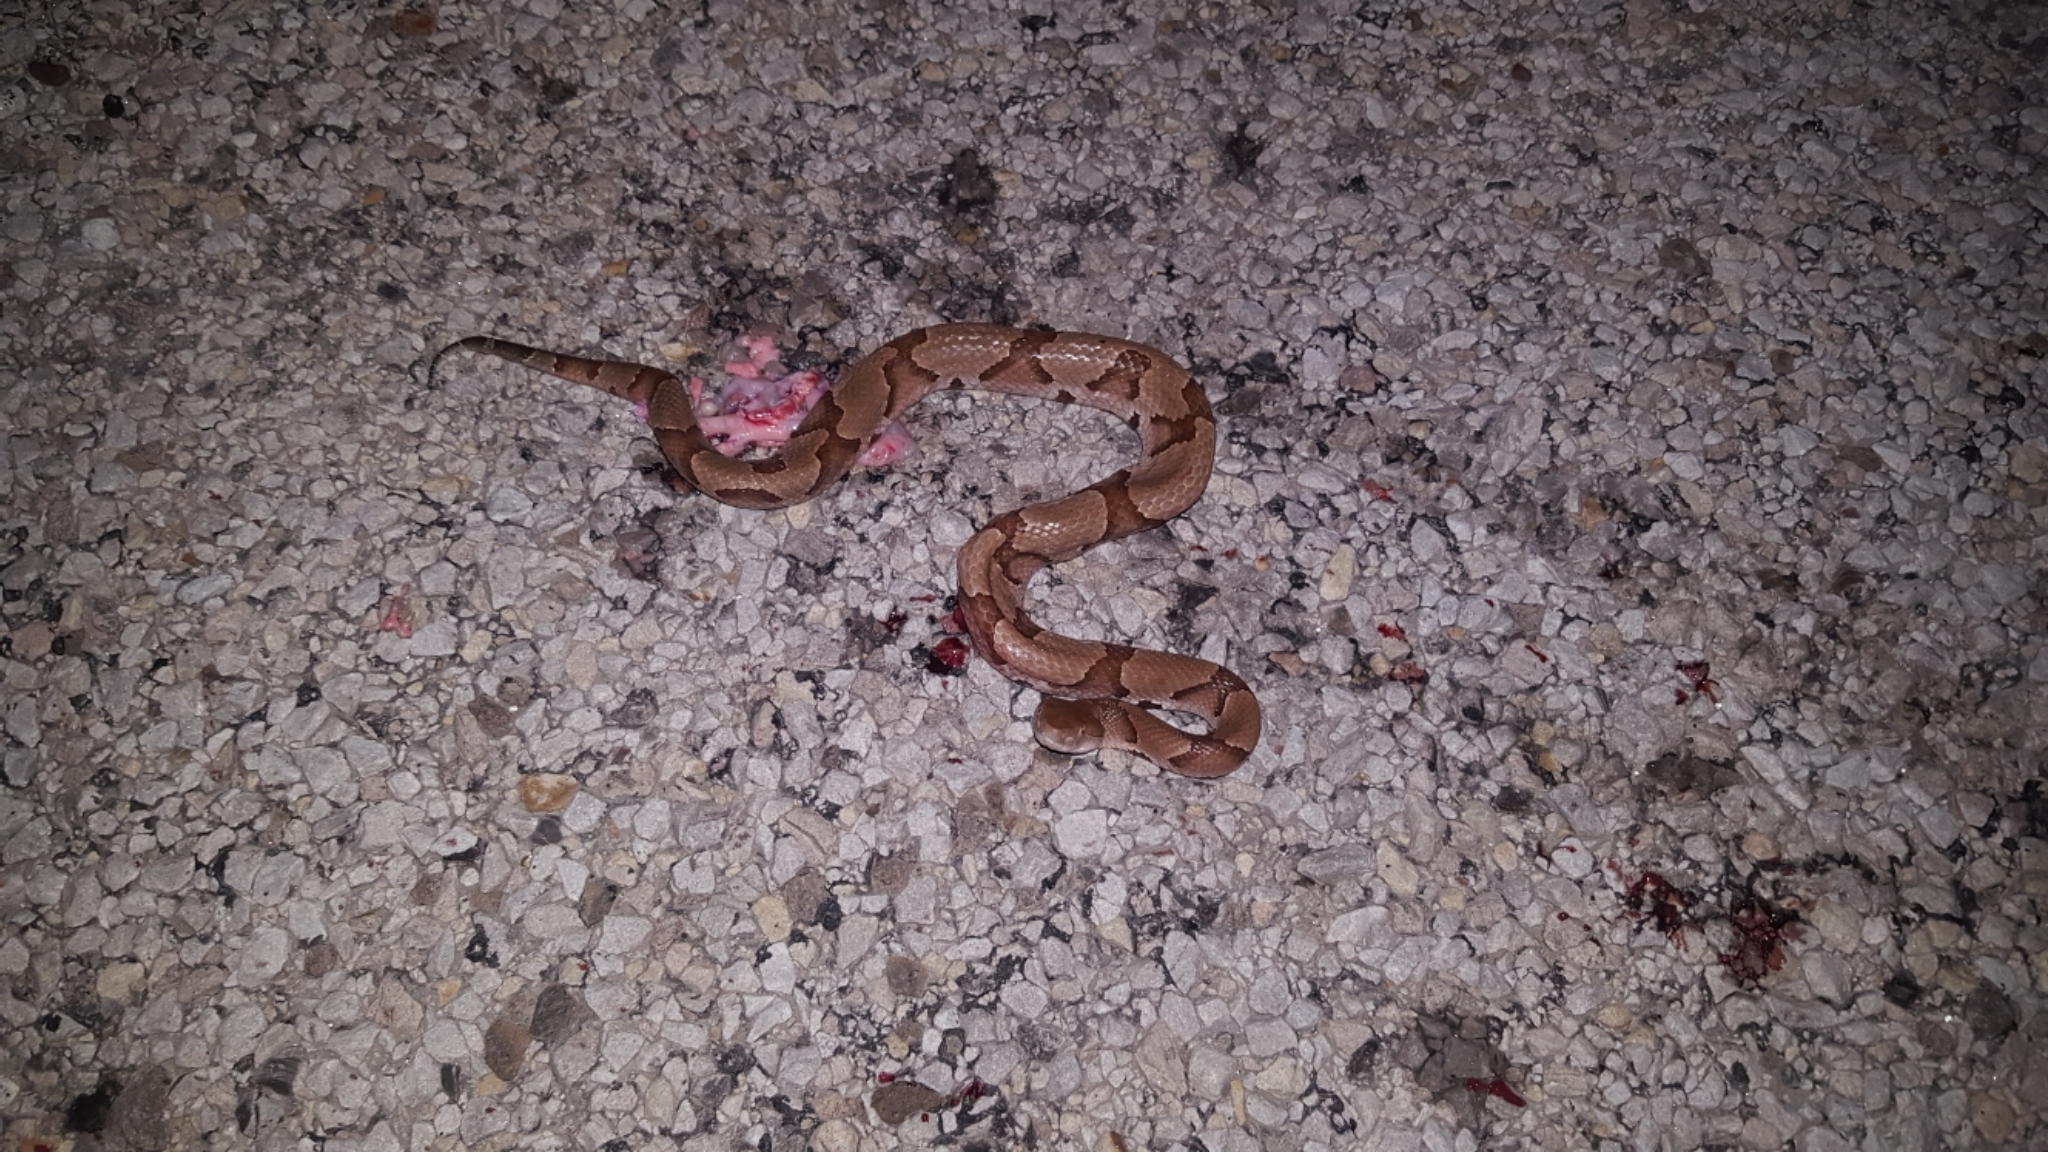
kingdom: Animalia
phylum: Chordata
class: Squamata
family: Viperidae
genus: Agkistrodon
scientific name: Agkistrodon contortrix
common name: Northern copperhead
